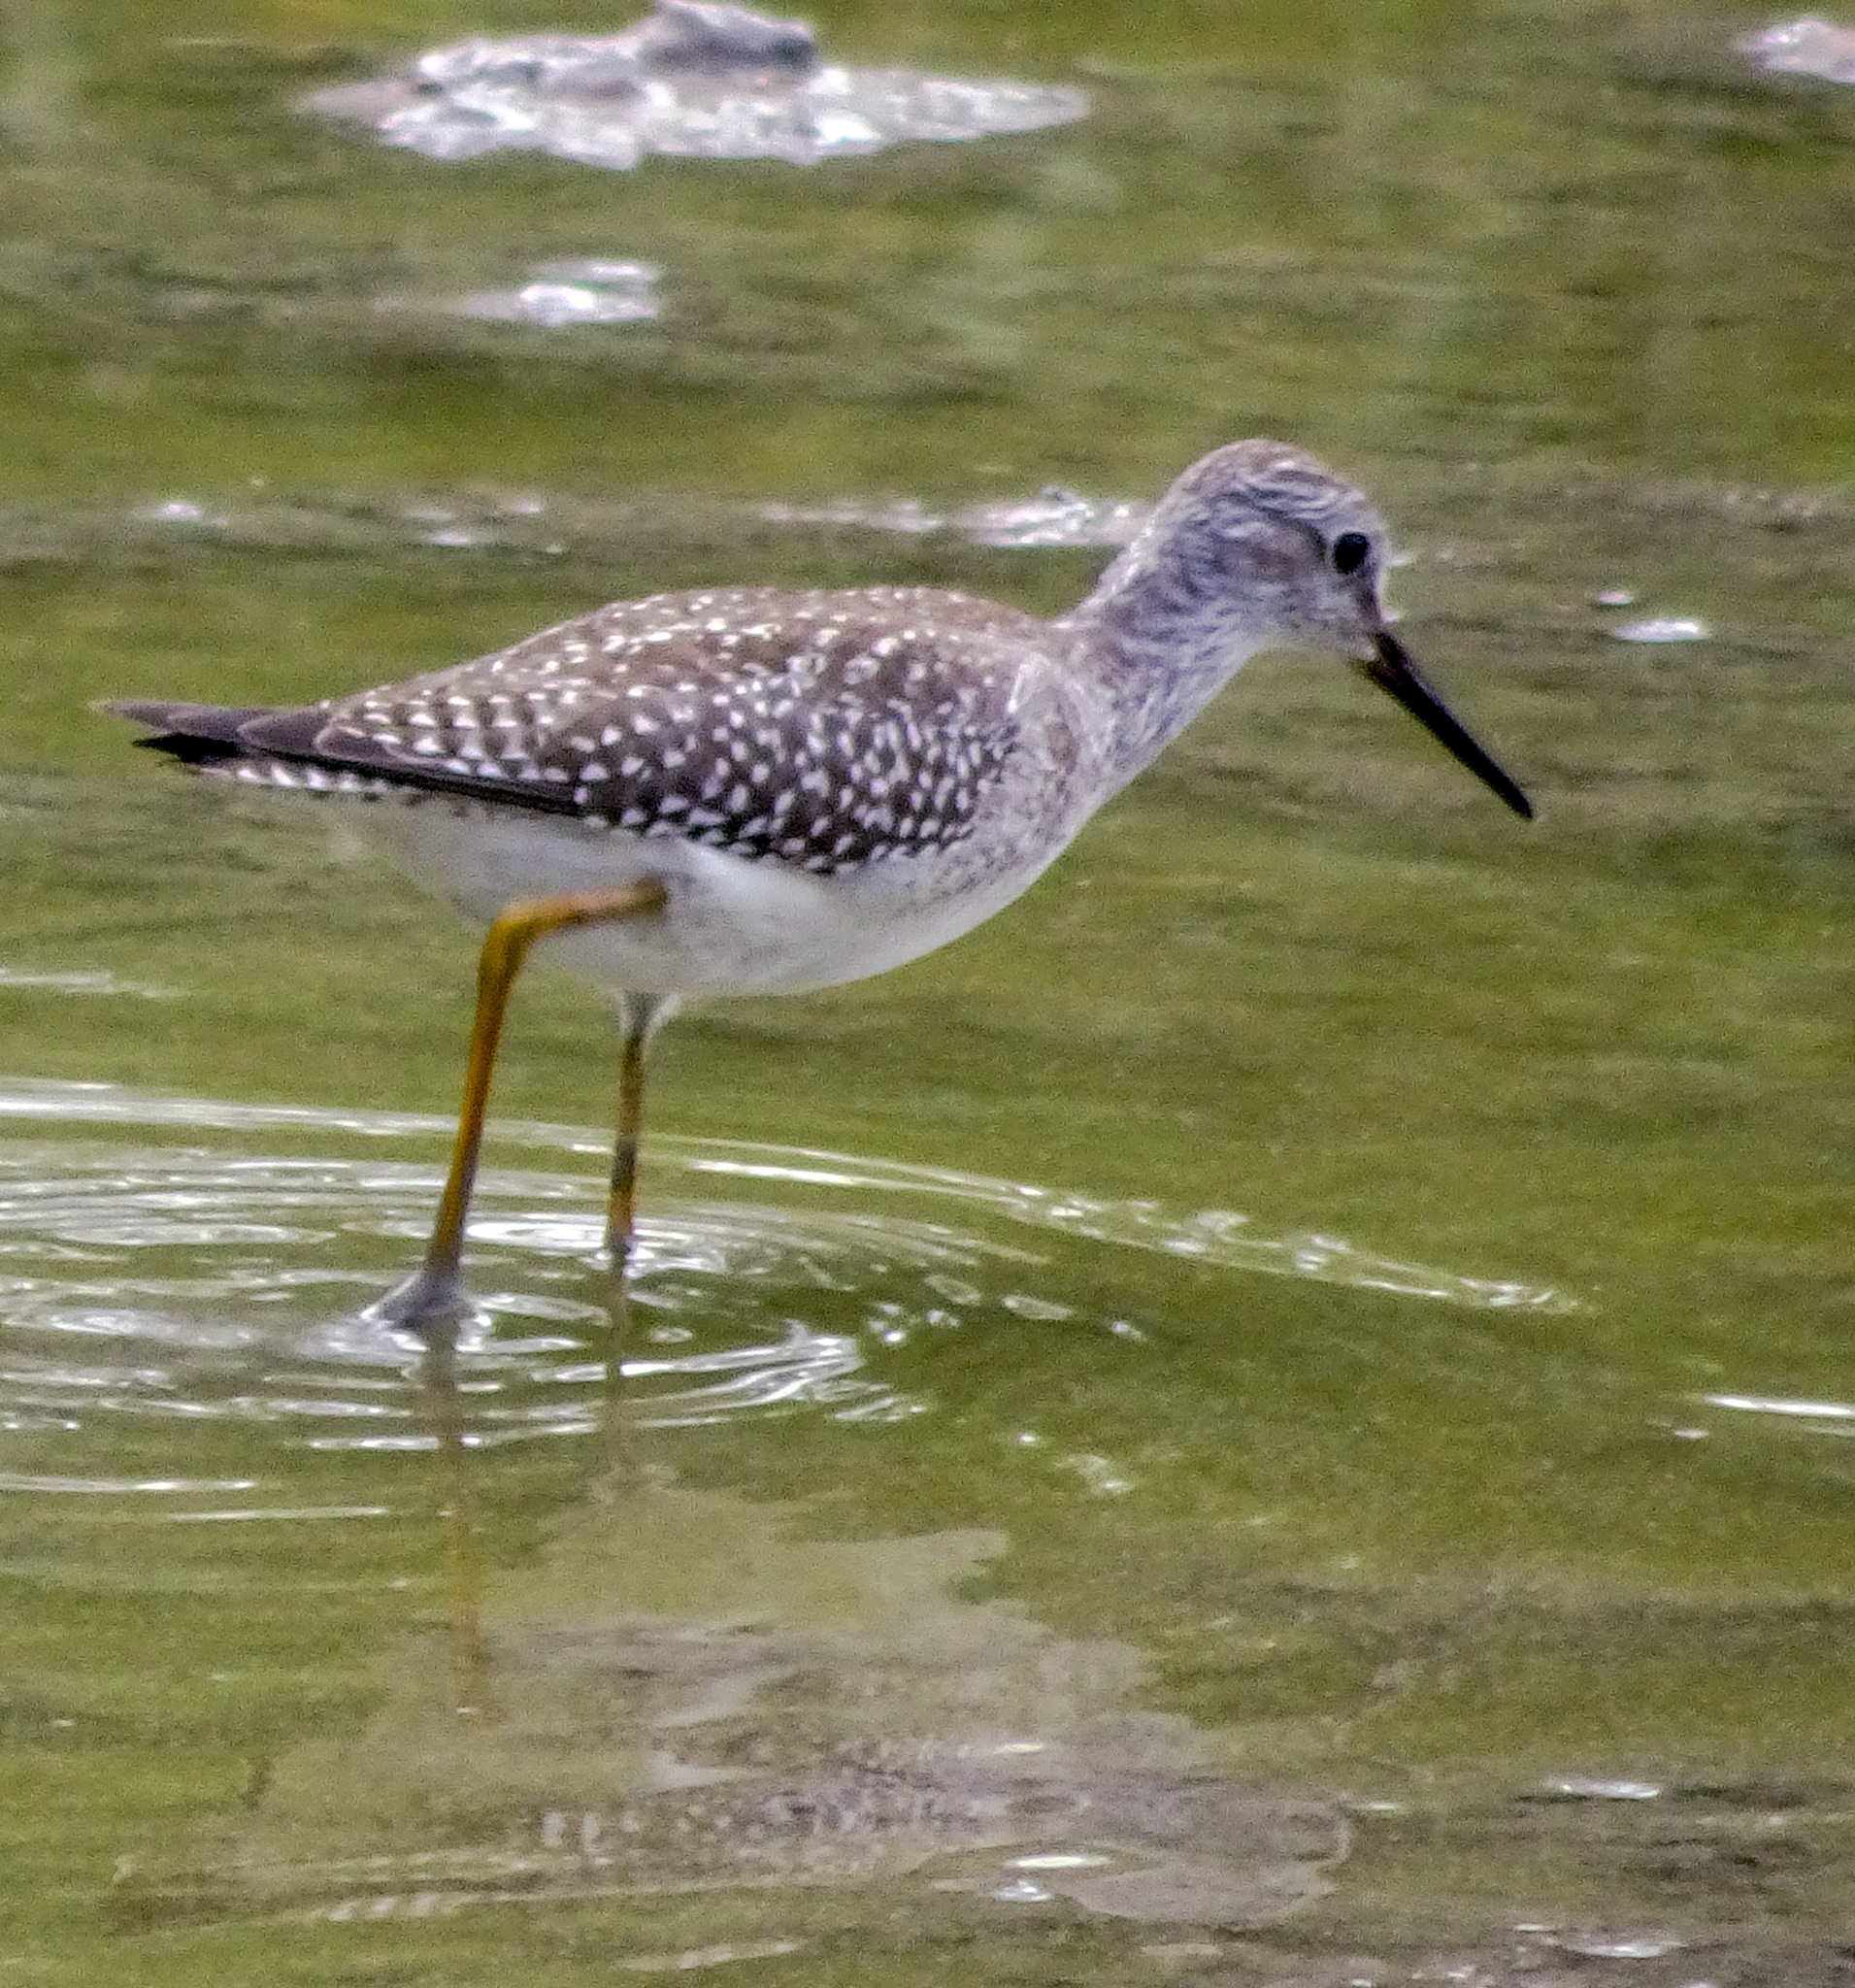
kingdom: Animalia
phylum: Chordata
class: Aves
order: Charadriiformes
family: Scolopacidae
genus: Tringa
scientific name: Tringa flavipes
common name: Lesser yellowlegs
